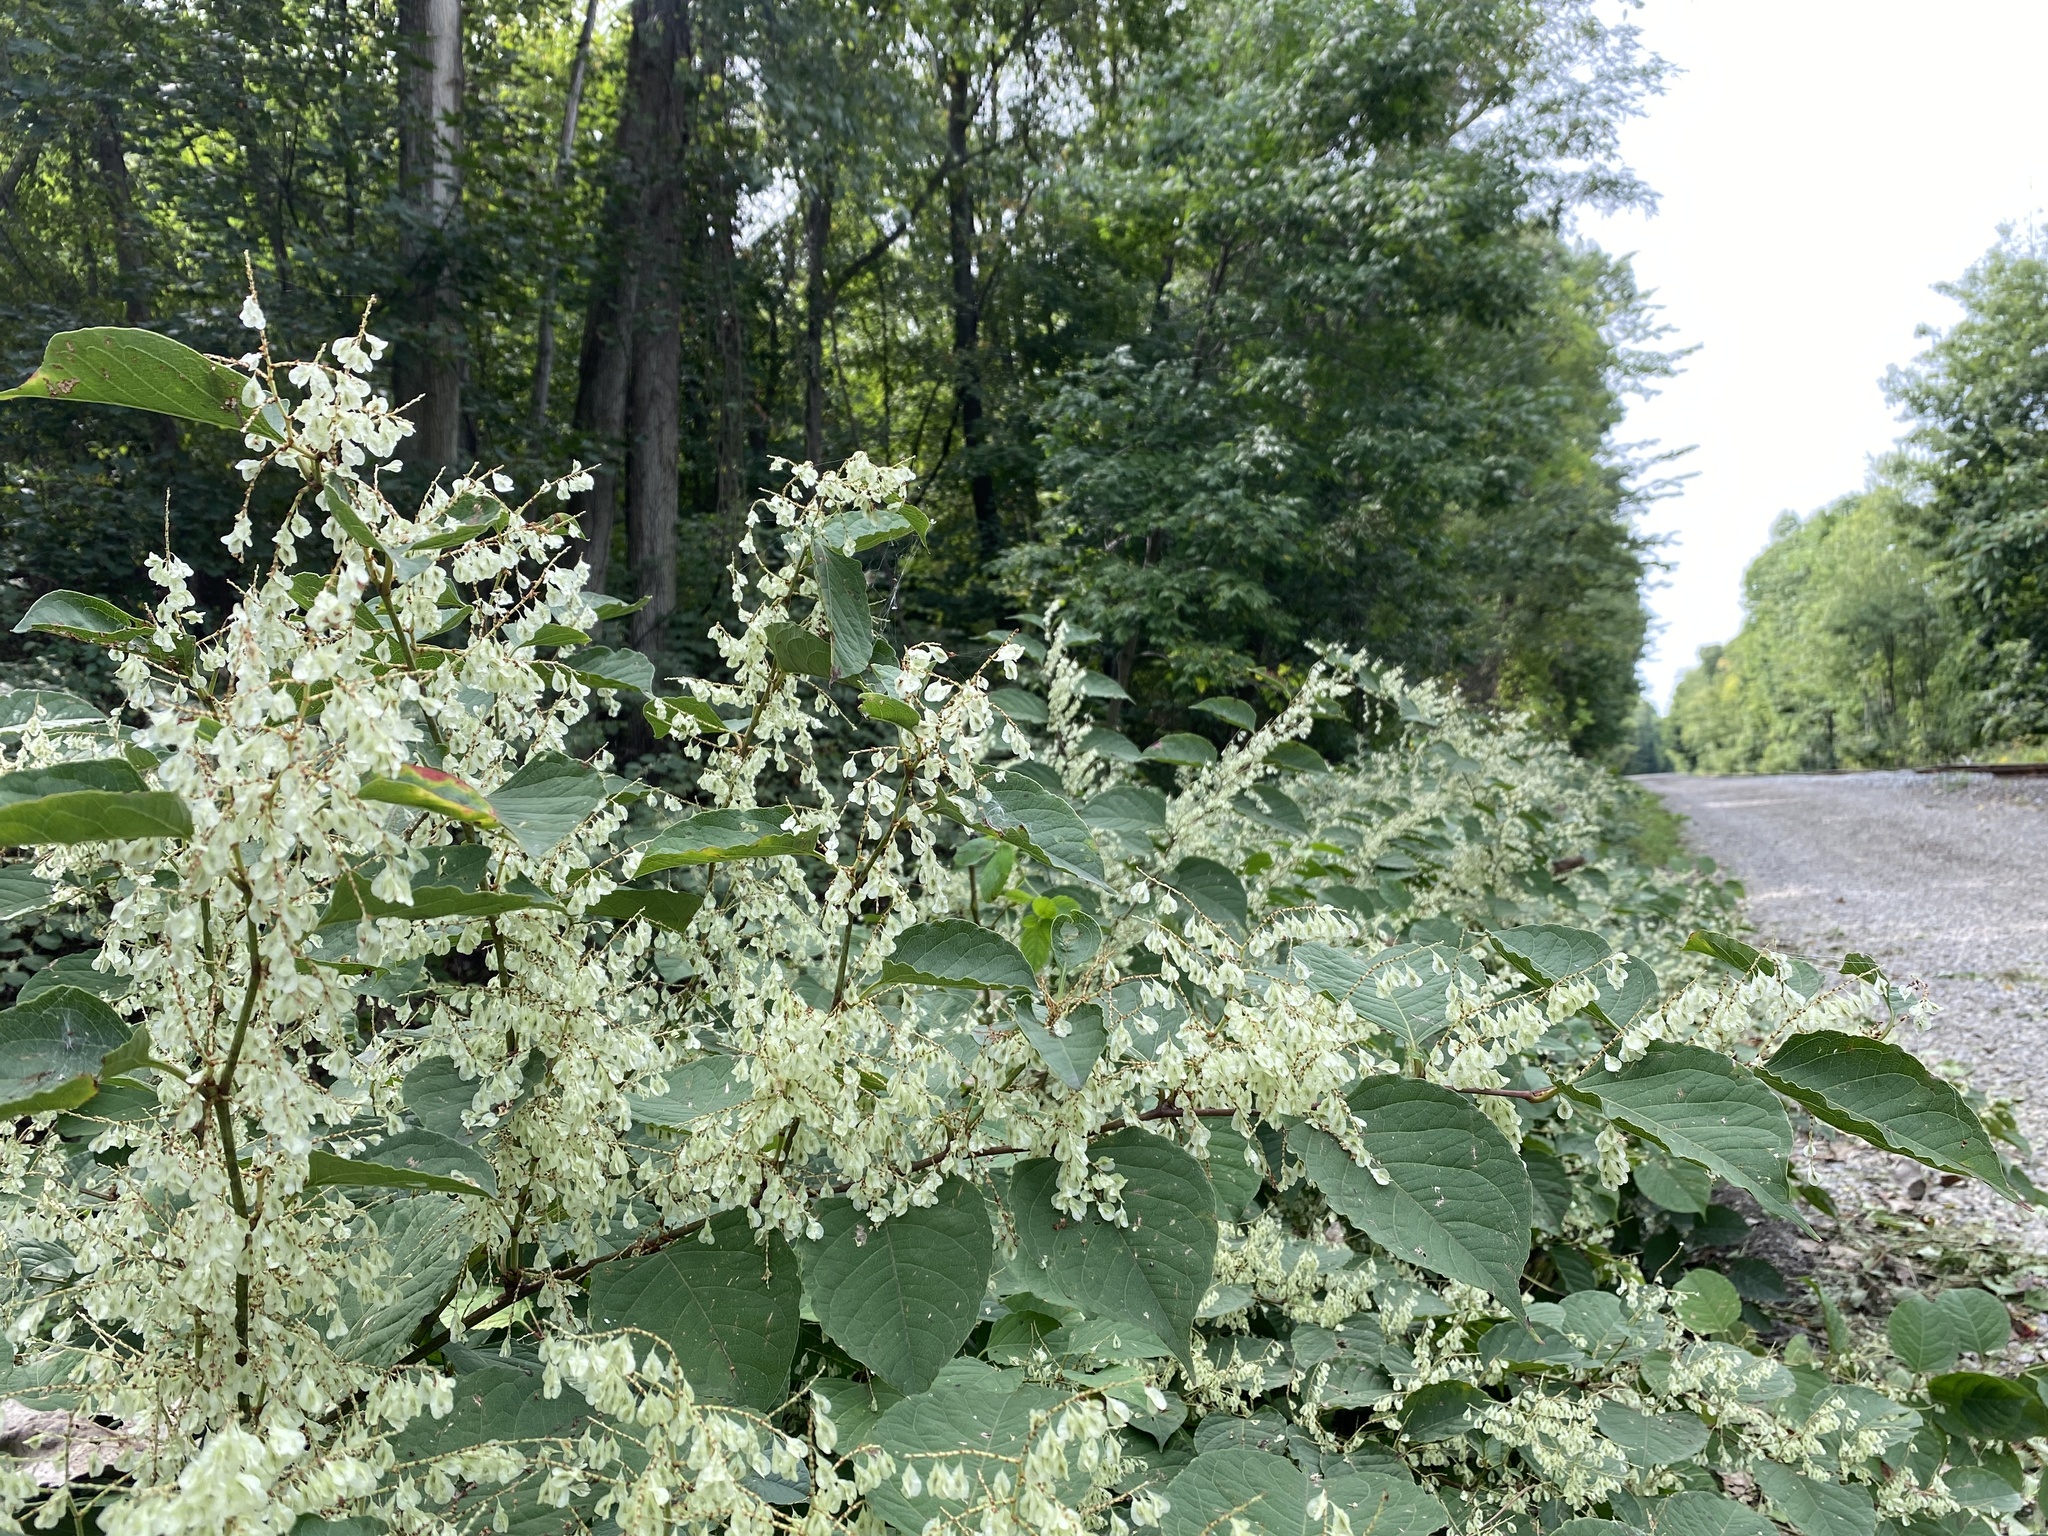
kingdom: Plantae
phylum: Tracheophyta
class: Magnoliopsida
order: Caryophyllales
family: Polygonaceae
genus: Reynoutria
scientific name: Reynoutria japonica
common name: Japanese knotweed
